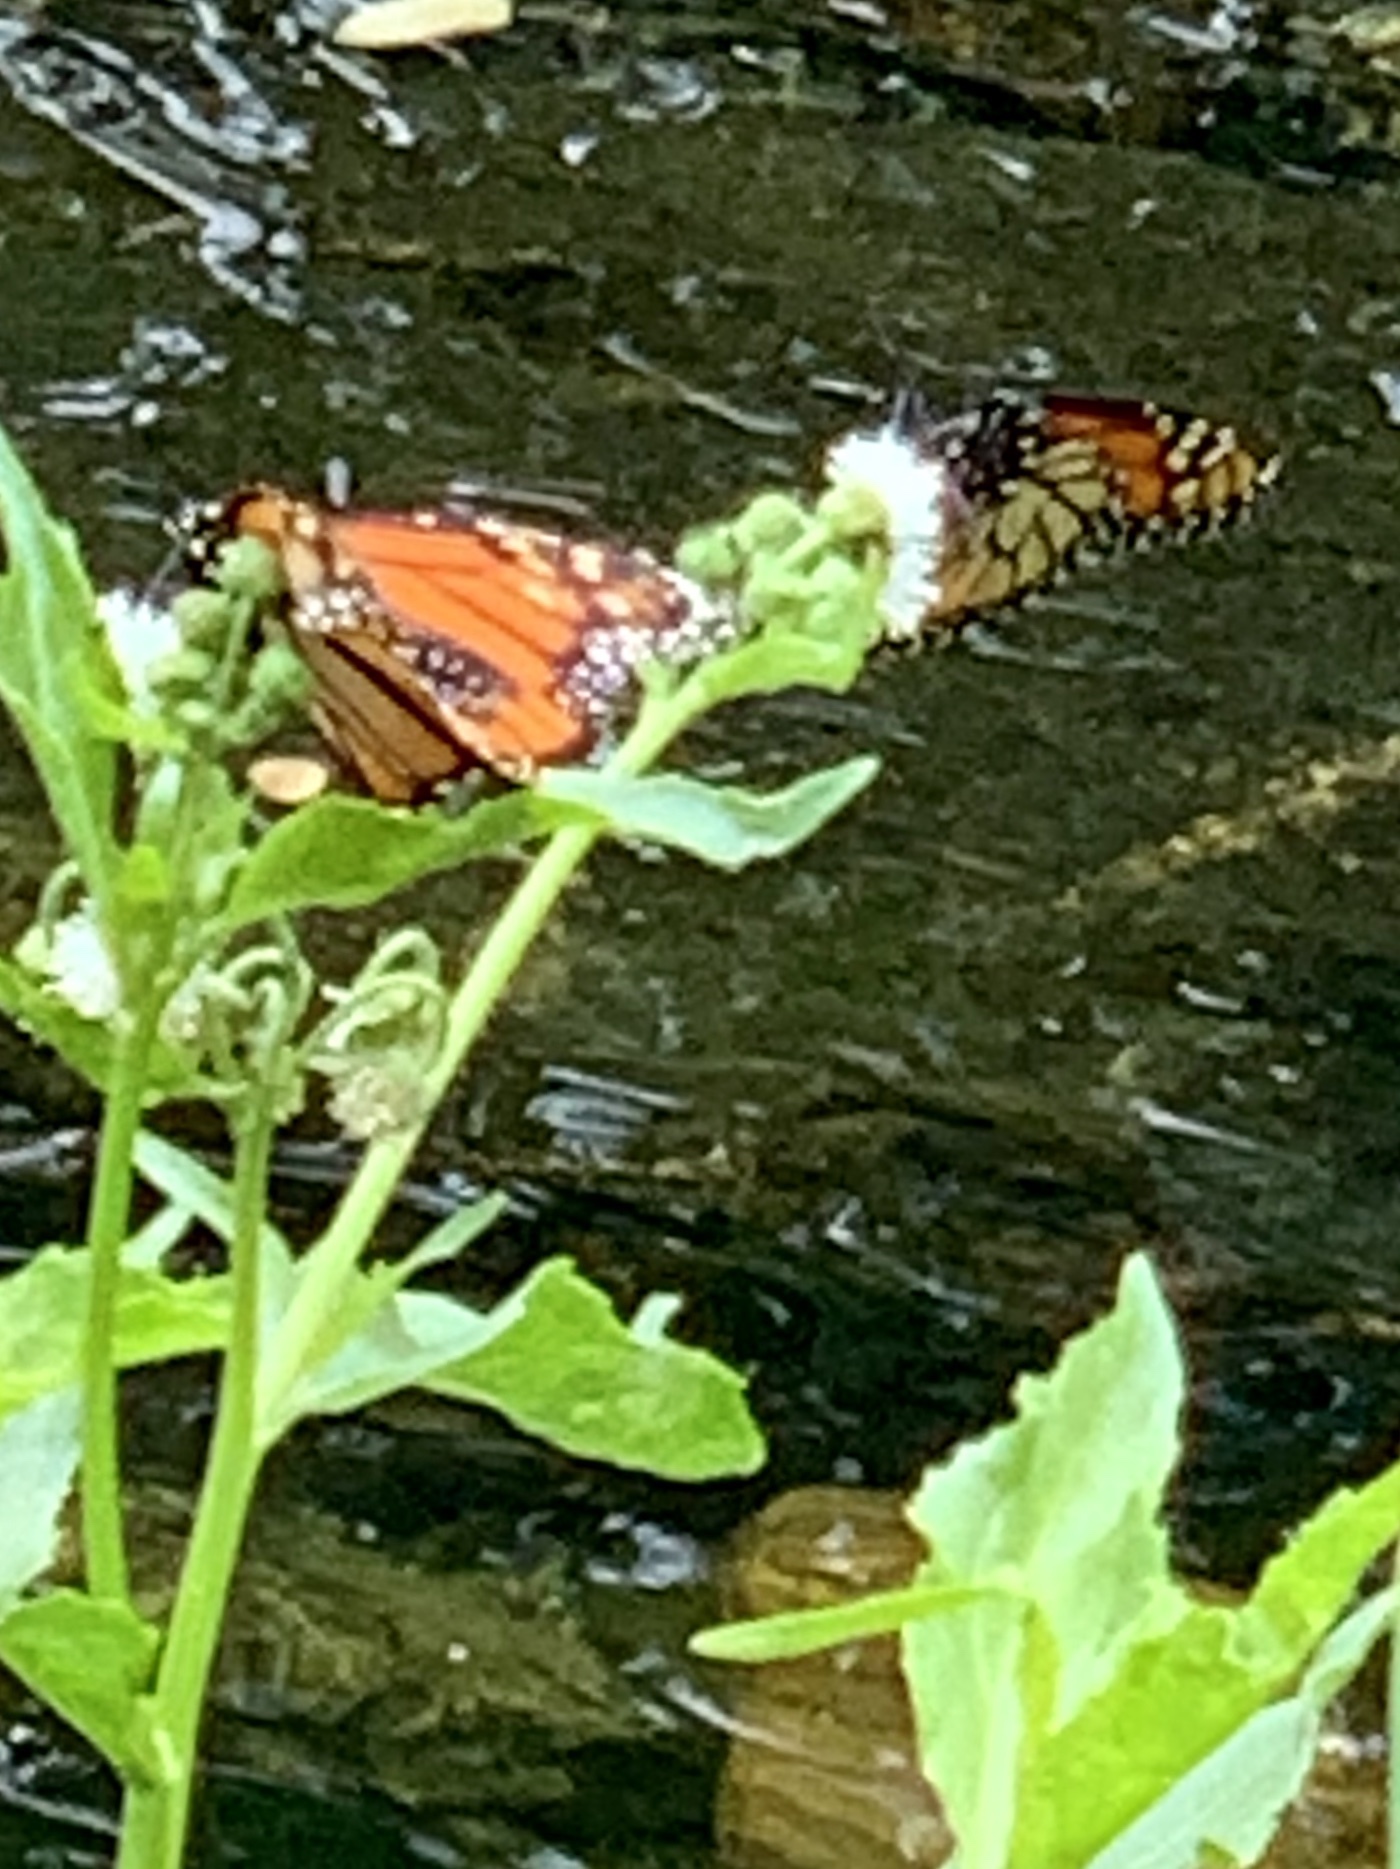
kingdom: Animalia
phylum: Arthropoda
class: Insecta
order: Lepidoptera
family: Nymphalidae
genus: Danaus
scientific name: Danaus plexippus
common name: Monarch
